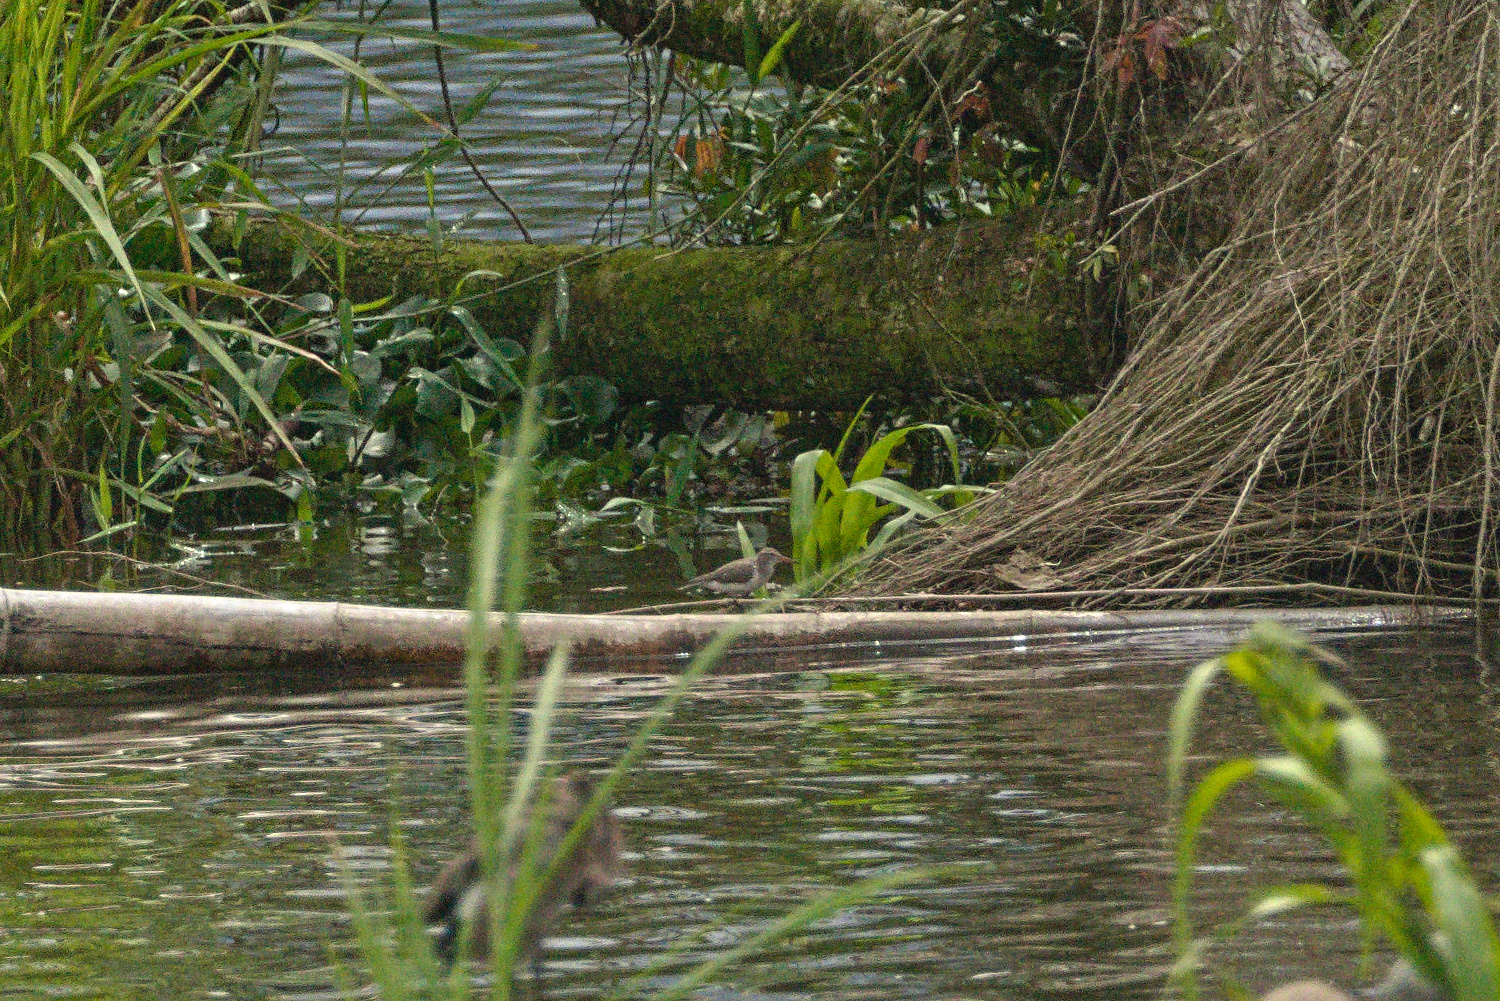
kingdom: Animalia
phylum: Chordata
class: Aves
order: Charadriiformes
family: Scolopacidae
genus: Actitis
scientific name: Actitis macularius
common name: Spotted sandpiper
